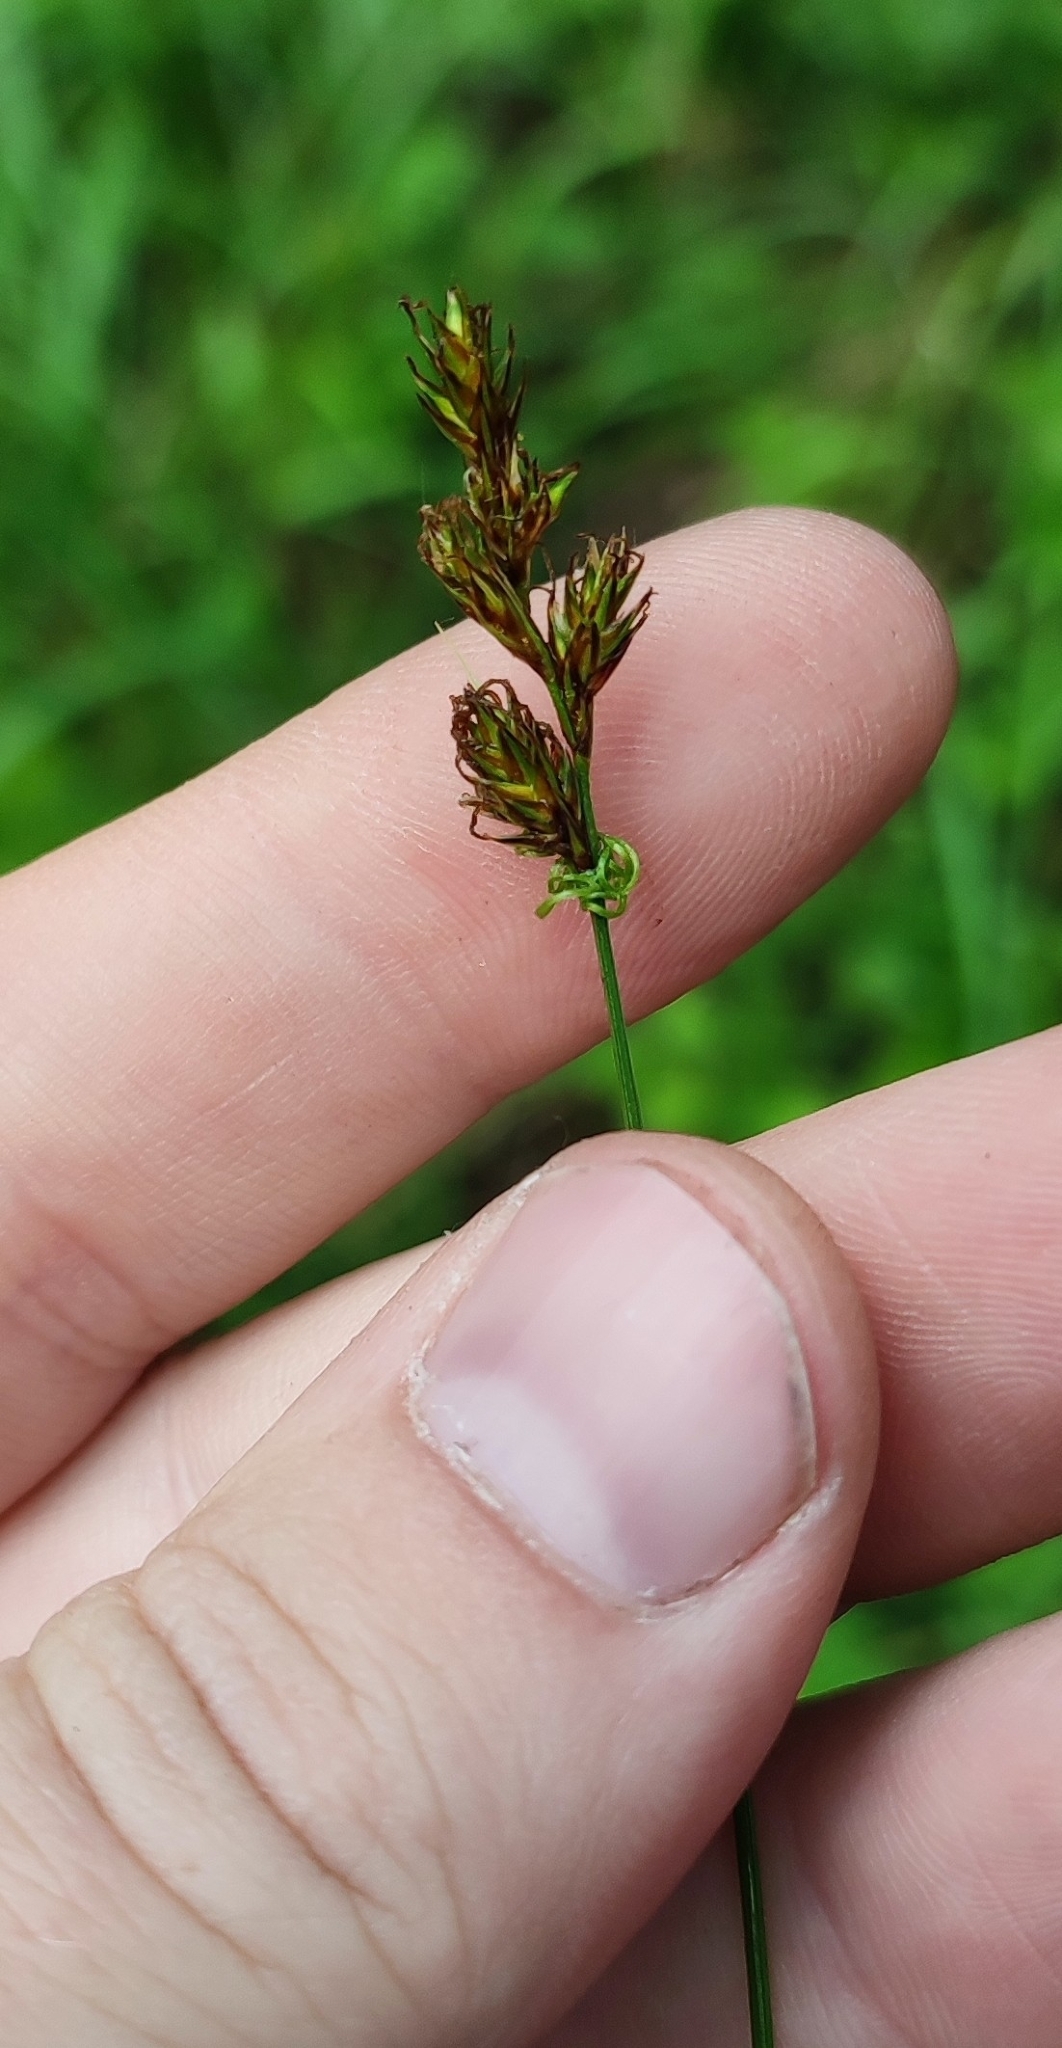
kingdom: Plantae
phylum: Tracheophyta
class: Liliopsida
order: Poales
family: Cyperaceae
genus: Carex
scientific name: Carex praecox
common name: Early sedge
